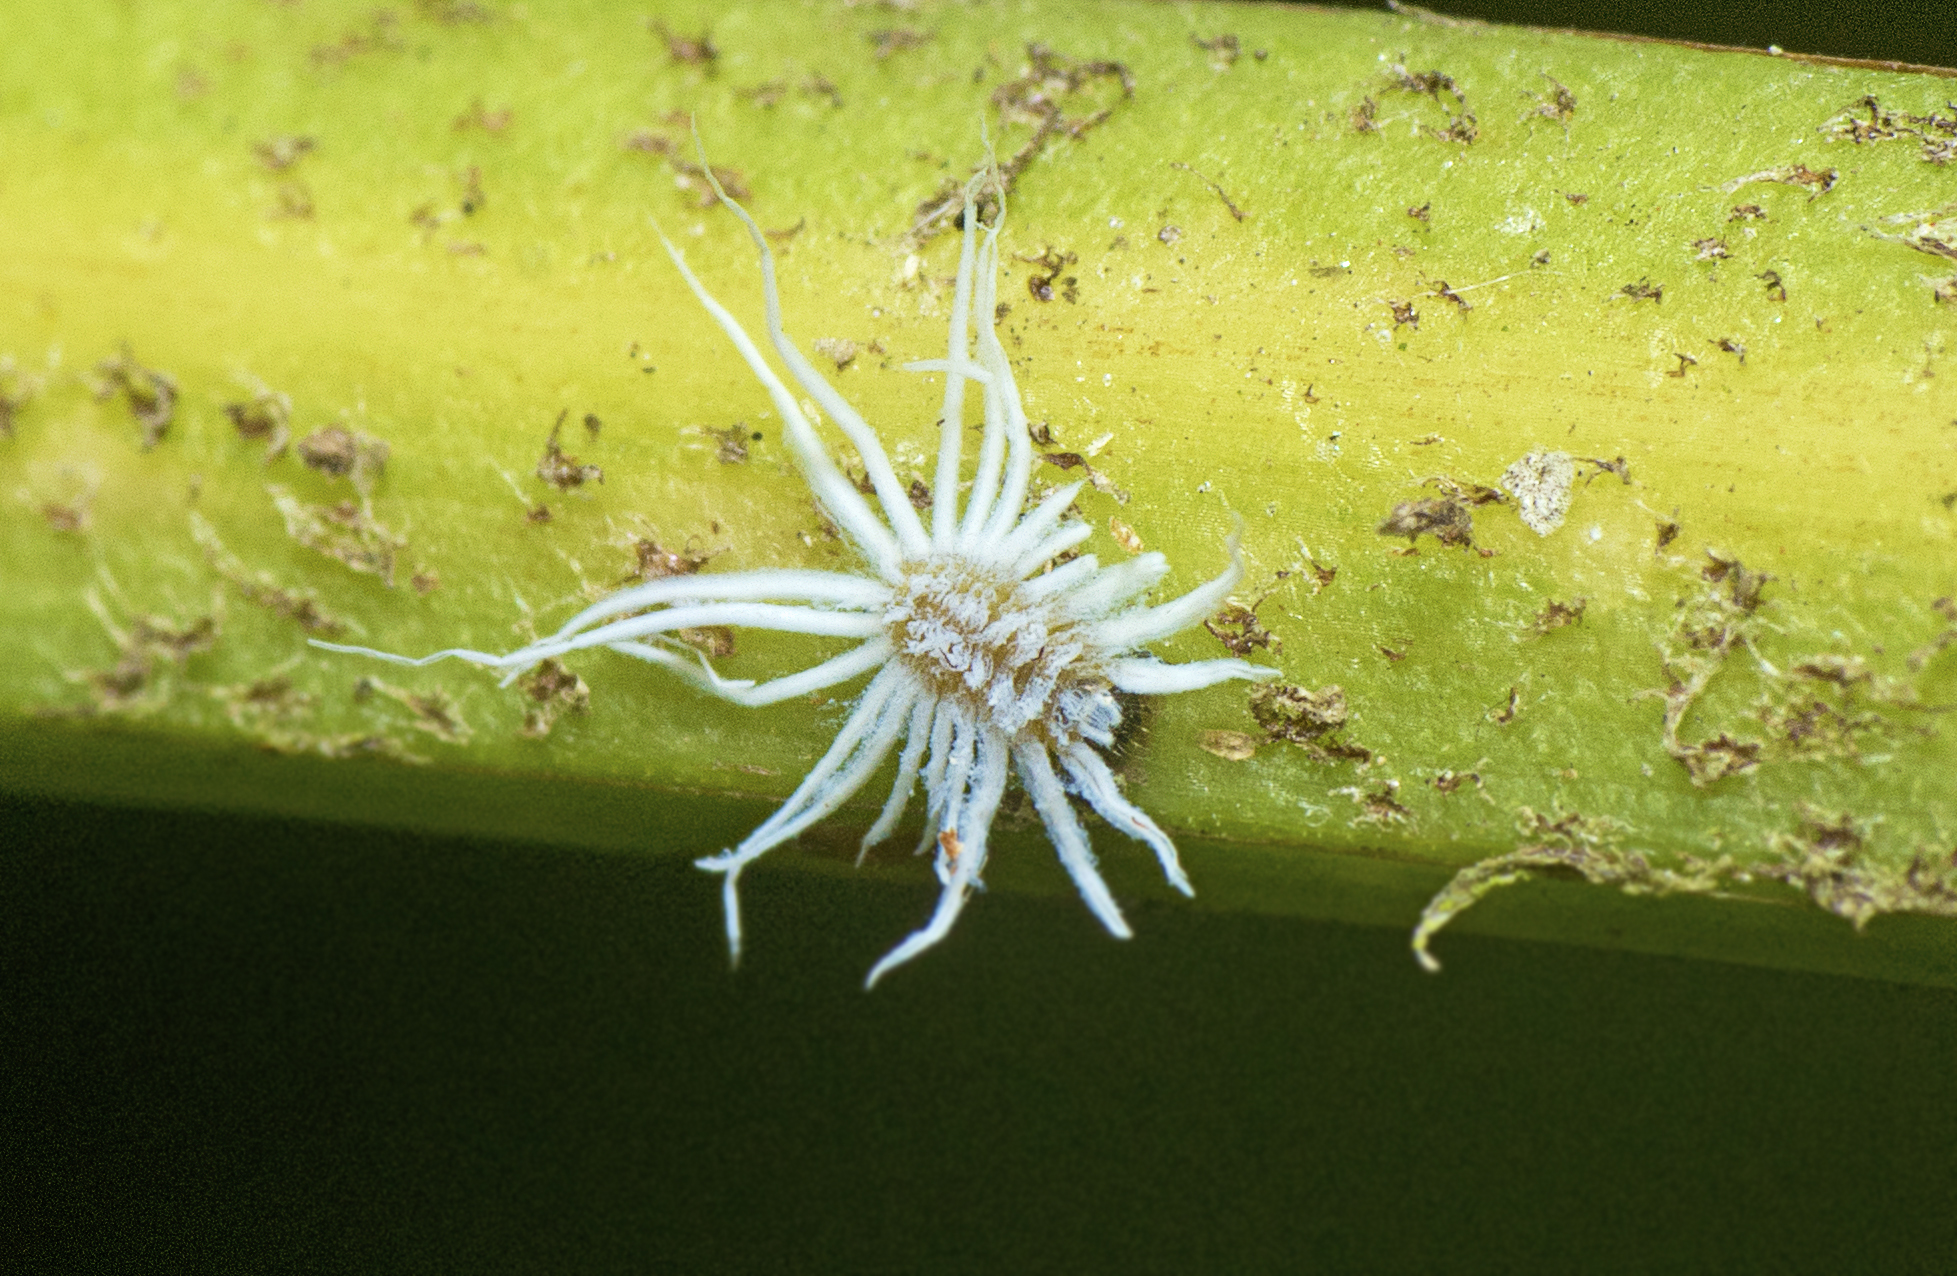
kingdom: Animalia
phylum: Arthropoda
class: Insecta
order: Coleoptera
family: Coccinellidae
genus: Cryptolaemus
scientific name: Cryptolaemus montrouzieri
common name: Mealybug destroyer
